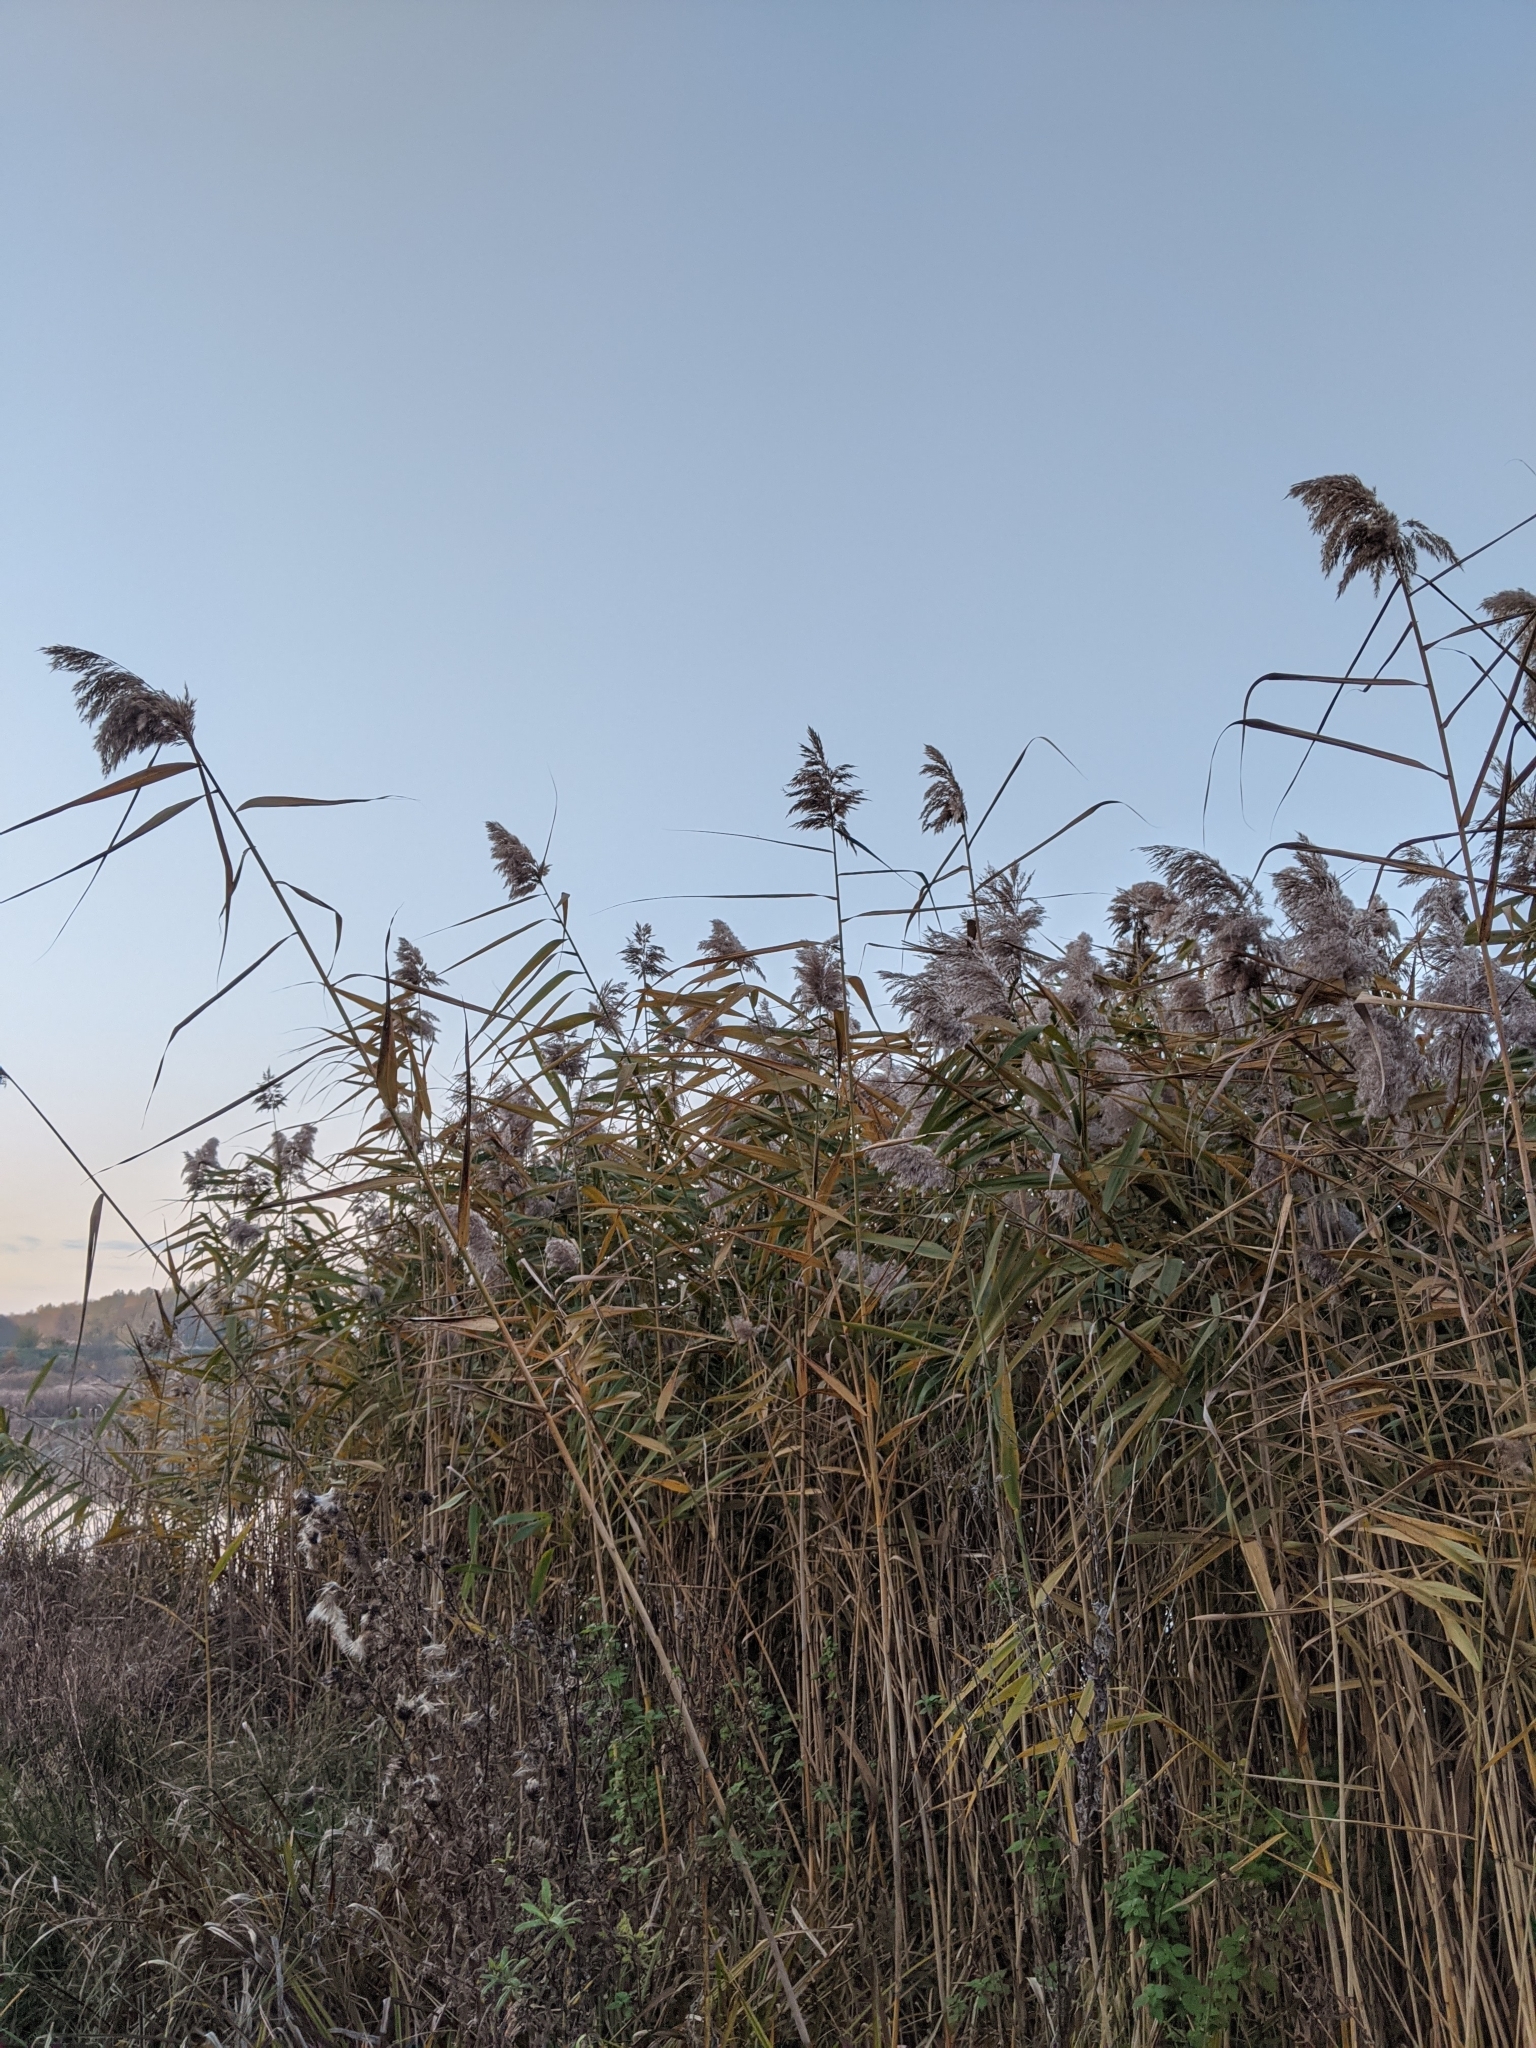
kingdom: Plantae
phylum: Tracheophyta
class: Liliopsida
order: Poales
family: Poaceae
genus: Phragmites
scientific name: Phragmites australis
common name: Common reed
